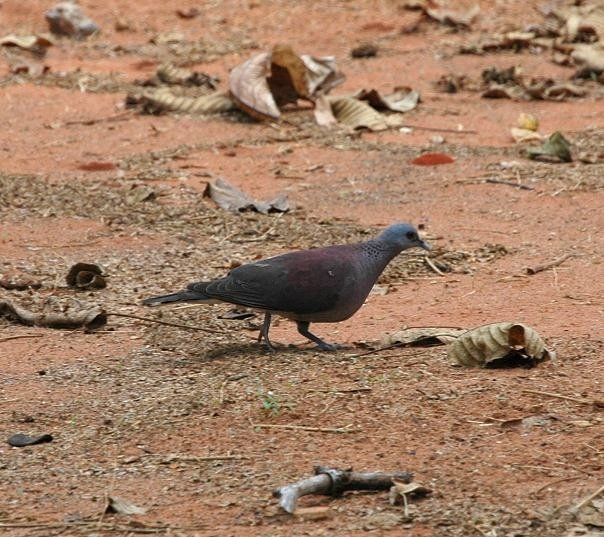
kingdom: Animalia
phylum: Chordata
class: Aves
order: Columbiformes
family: Columbidae
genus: Nesoenas
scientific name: Nesoenas picturatus
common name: Malagasy turtle dove
